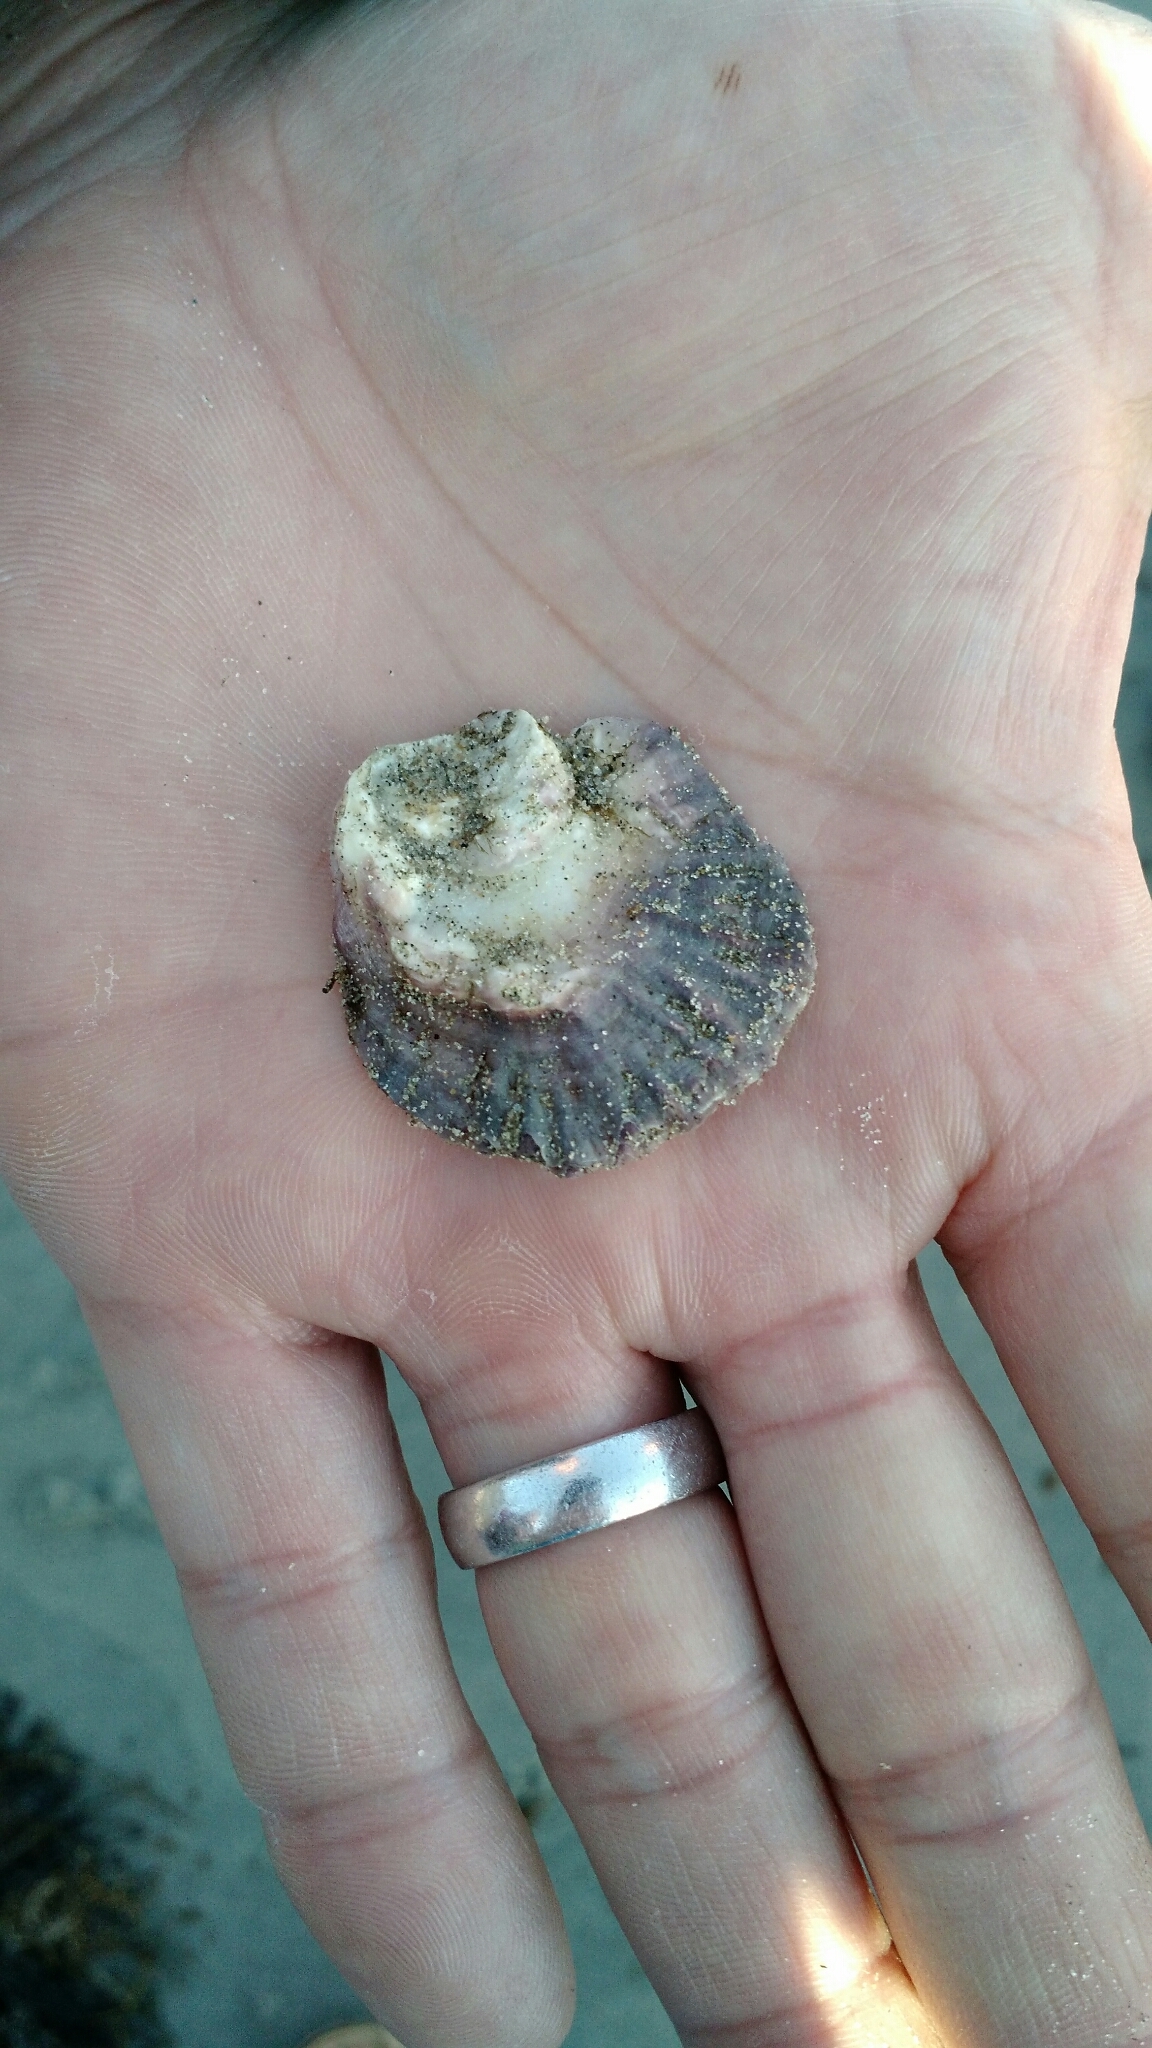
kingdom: Animalia
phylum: Mollusca
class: Bivalvia
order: Ostreida
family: Ostreidae
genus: Ostrea
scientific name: Ostrea edulis
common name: Flat oyster
